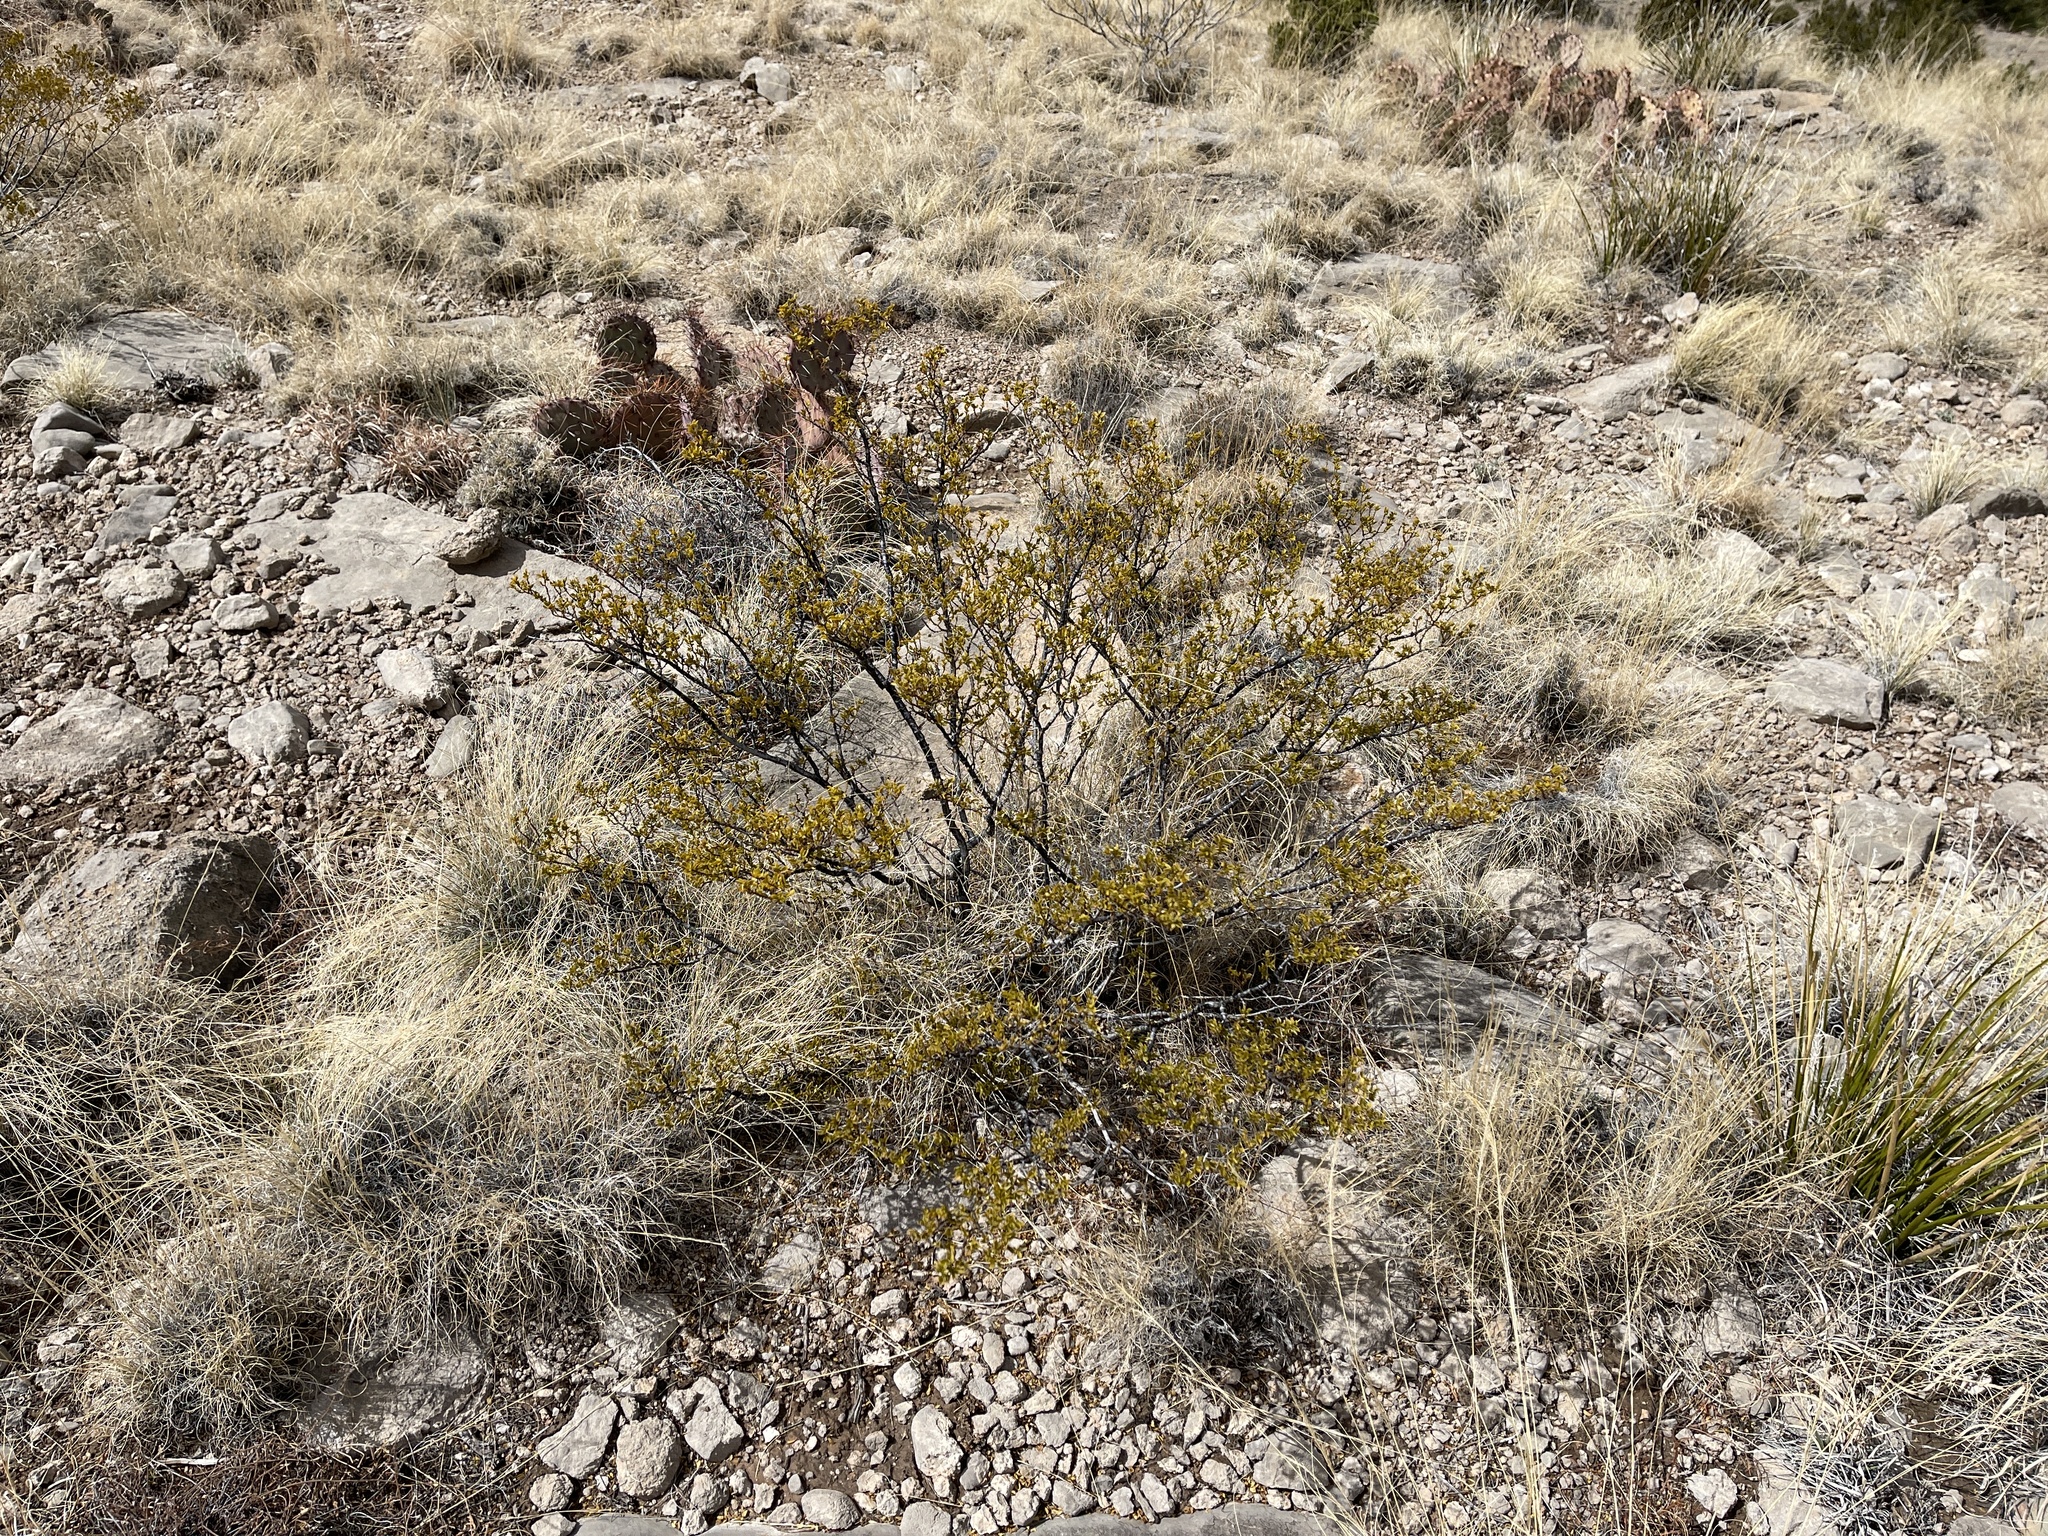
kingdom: Plantae
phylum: Tracheophyta
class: Magnoliopsida
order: Zygophyllales
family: Zygophyllaceae
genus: Larrea
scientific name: Larrea tridentata
